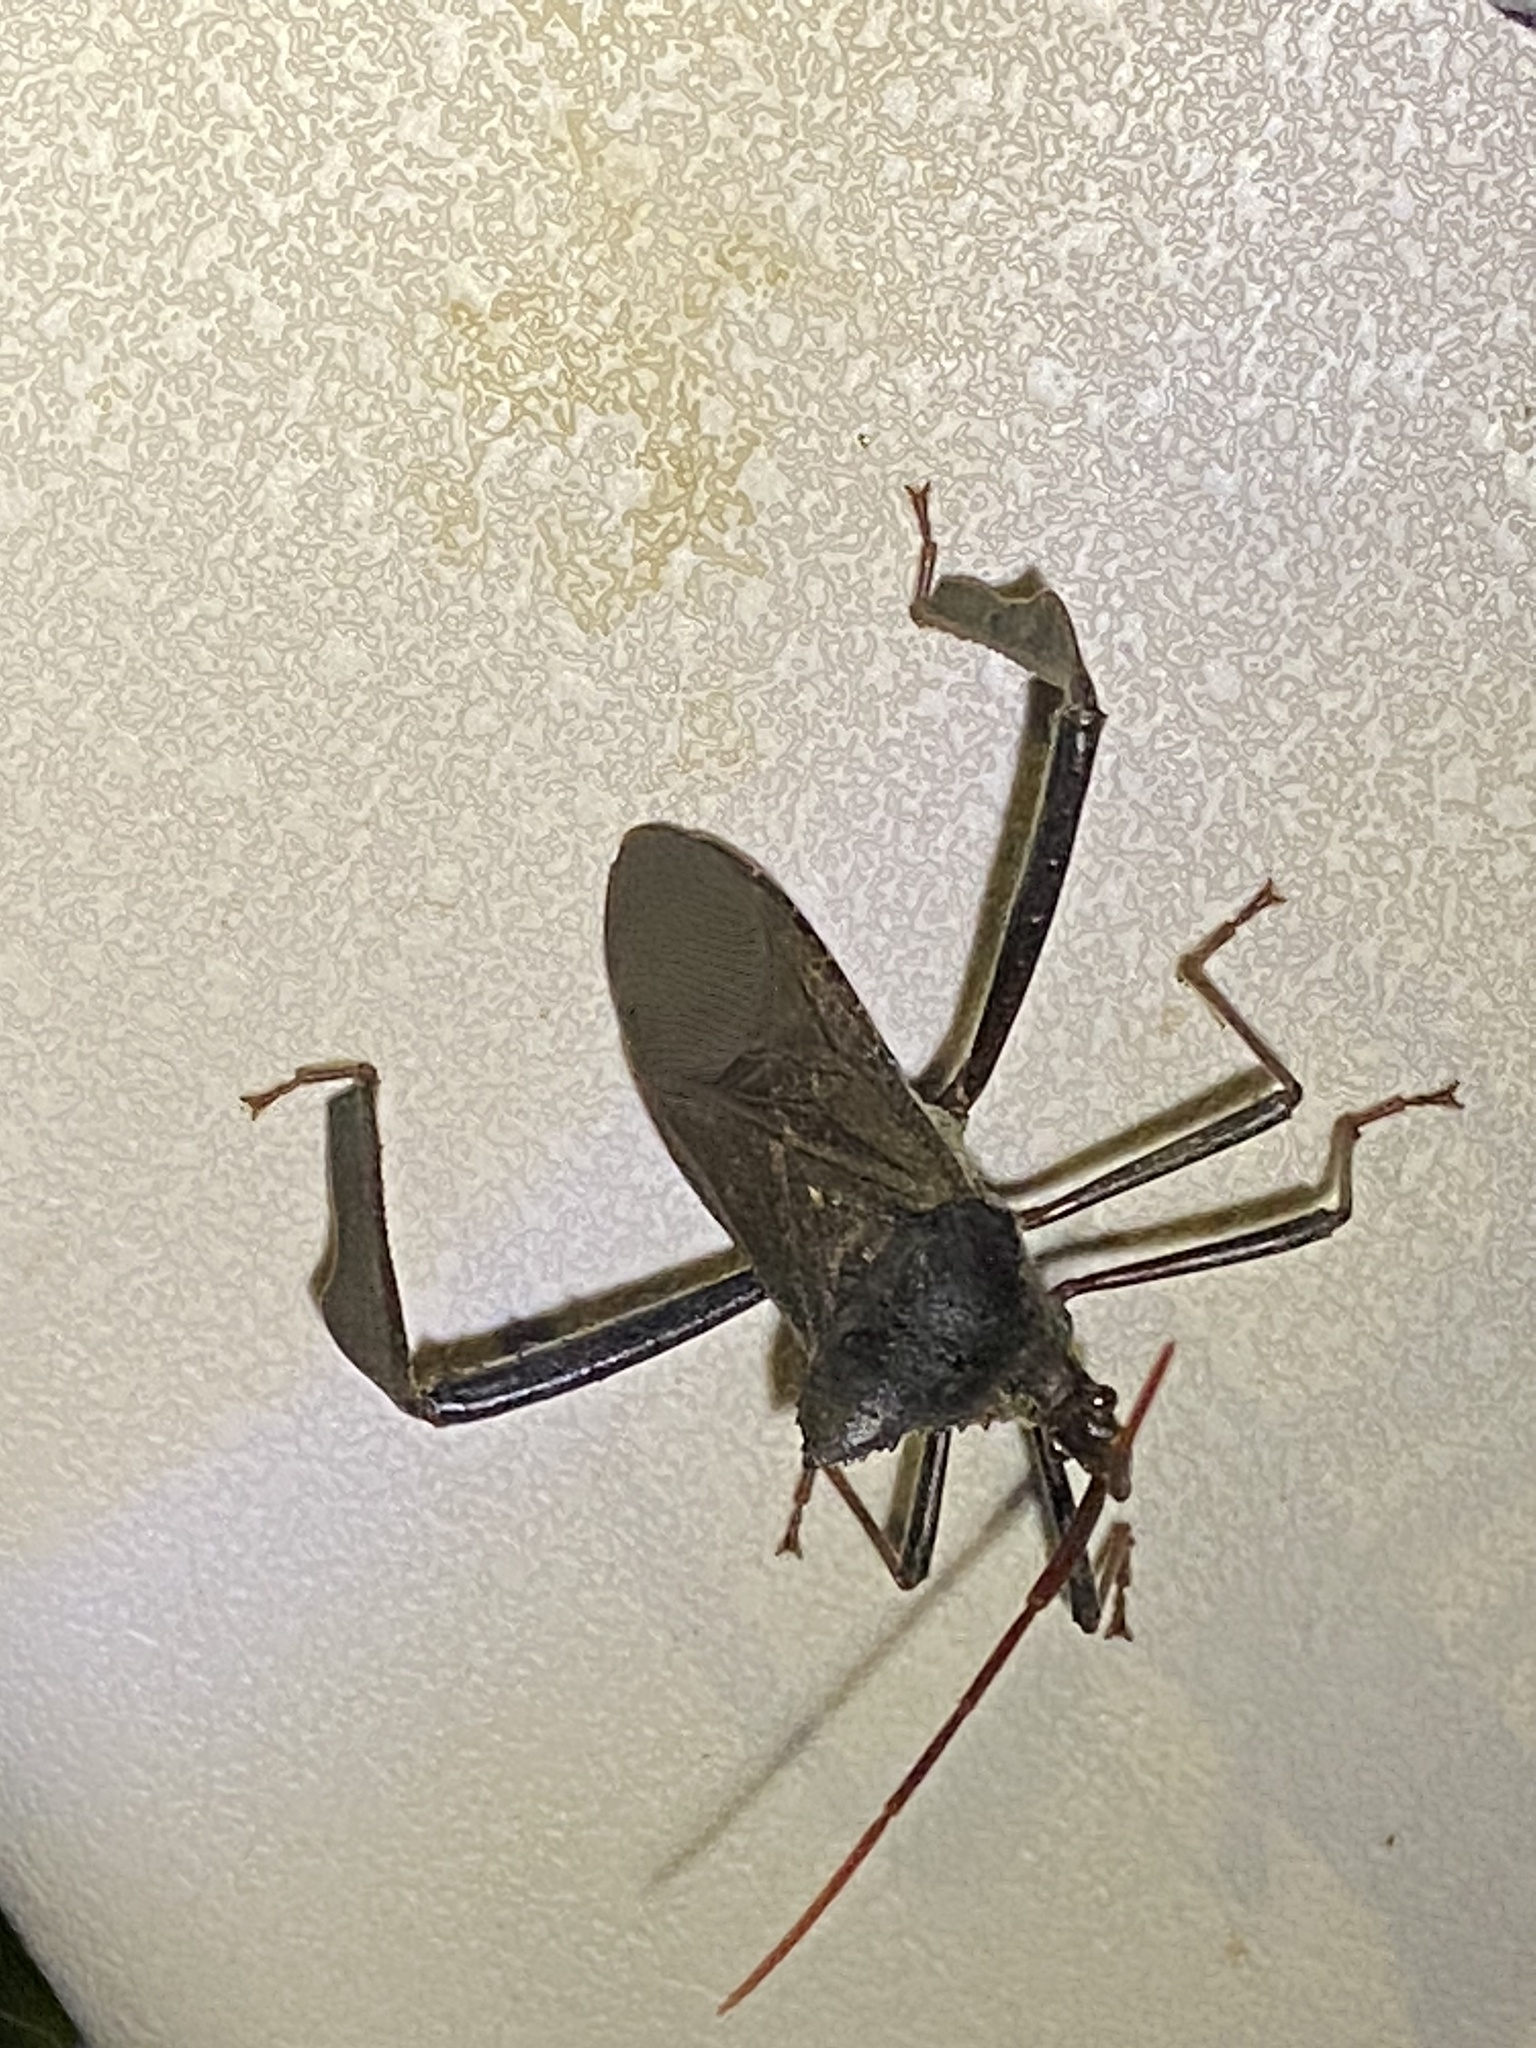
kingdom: Animalia
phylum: Arthropoda
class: Insecta
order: Hemiptera
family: Coreidae
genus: Acanthocephala
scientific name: Acanthocephala declivis
